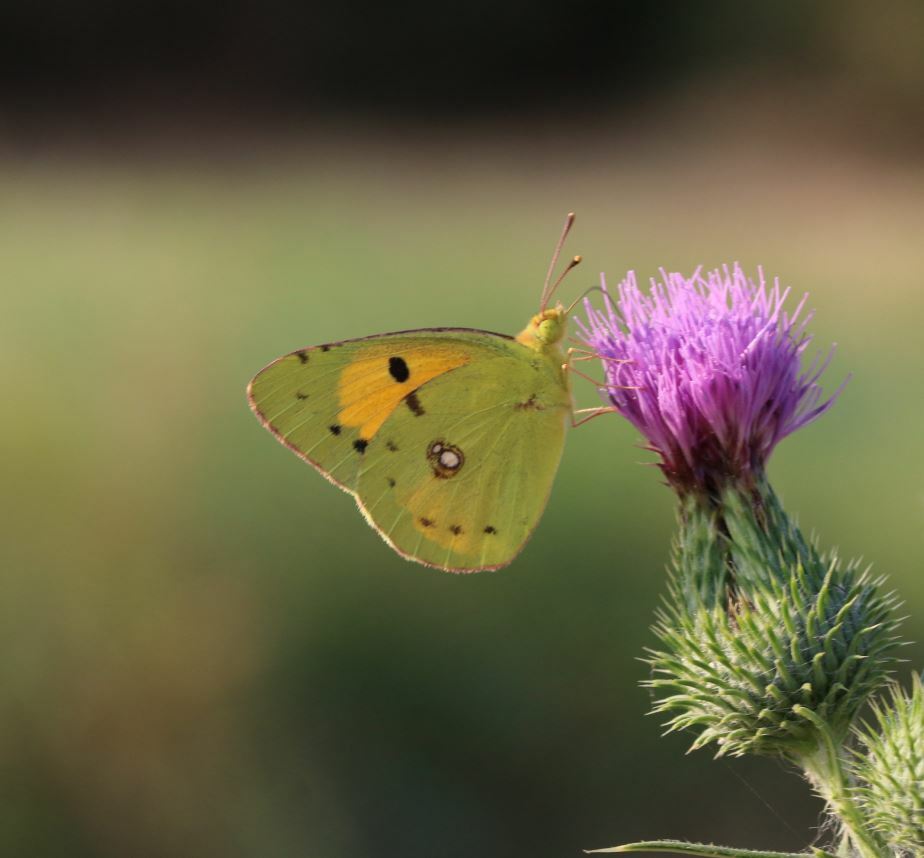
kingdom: Animalia
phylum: Arthropoda
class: Insecta
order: Lepidoptera
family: Pieridae
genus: Colias
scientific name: Colias croceus
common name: Clouded yellow
